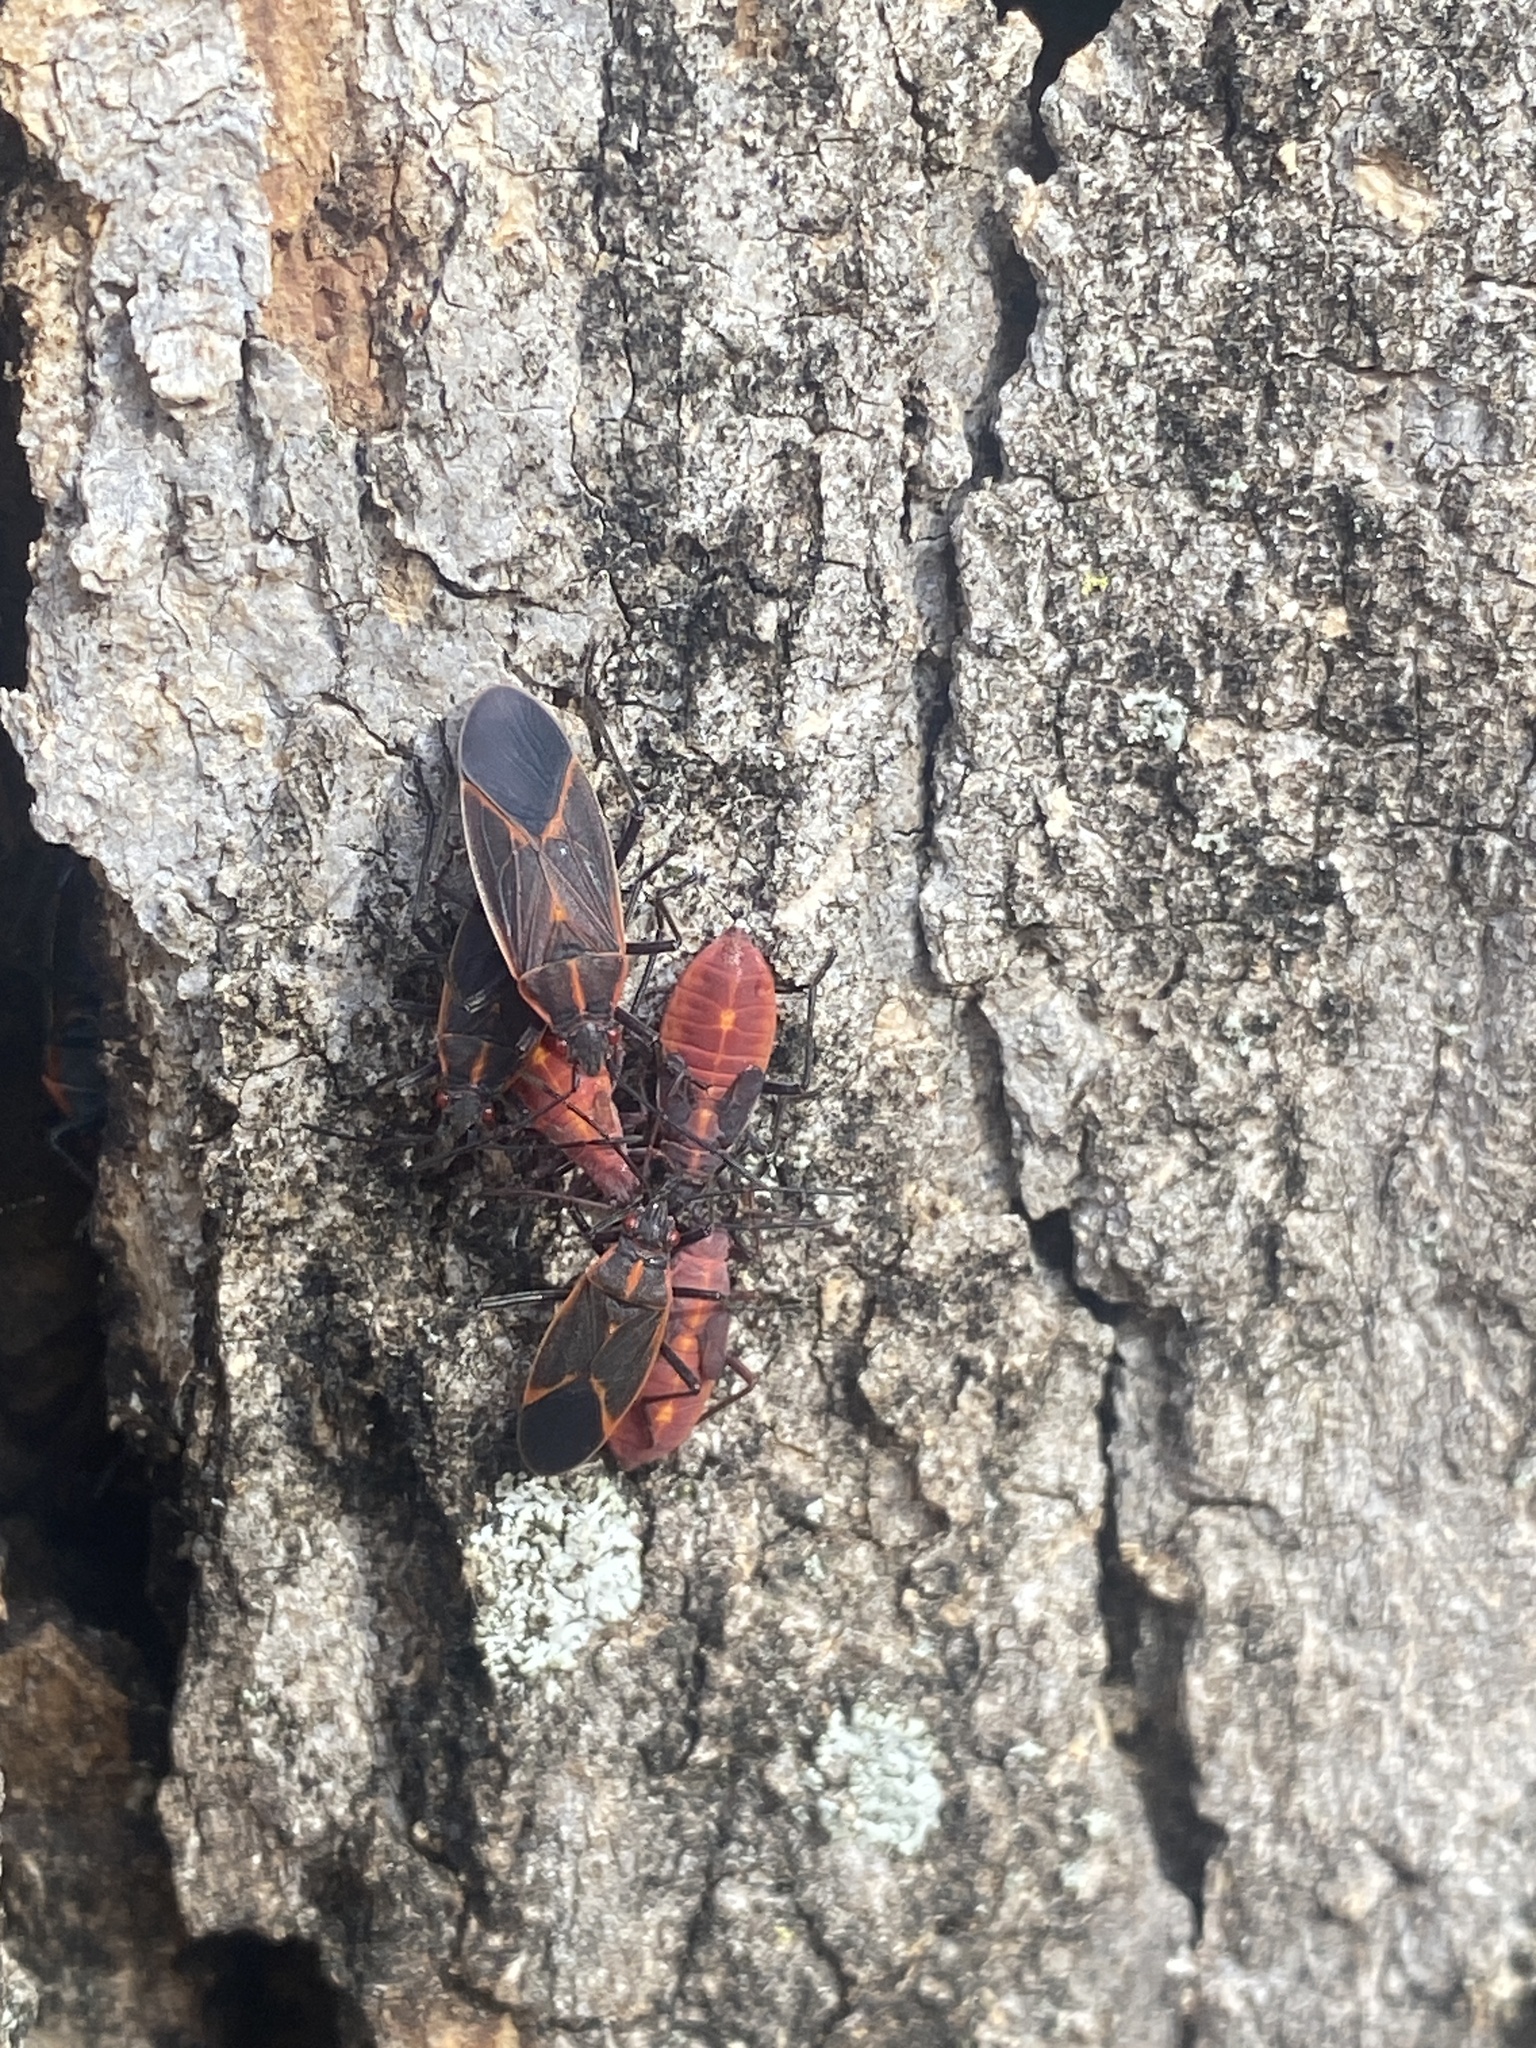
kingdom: Animalia
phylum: Arthropoda
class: Insecta
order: Hemiptera
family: Rhopalidae
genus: Boisea
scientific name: Boisea trivittata
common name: Boxelder bug
